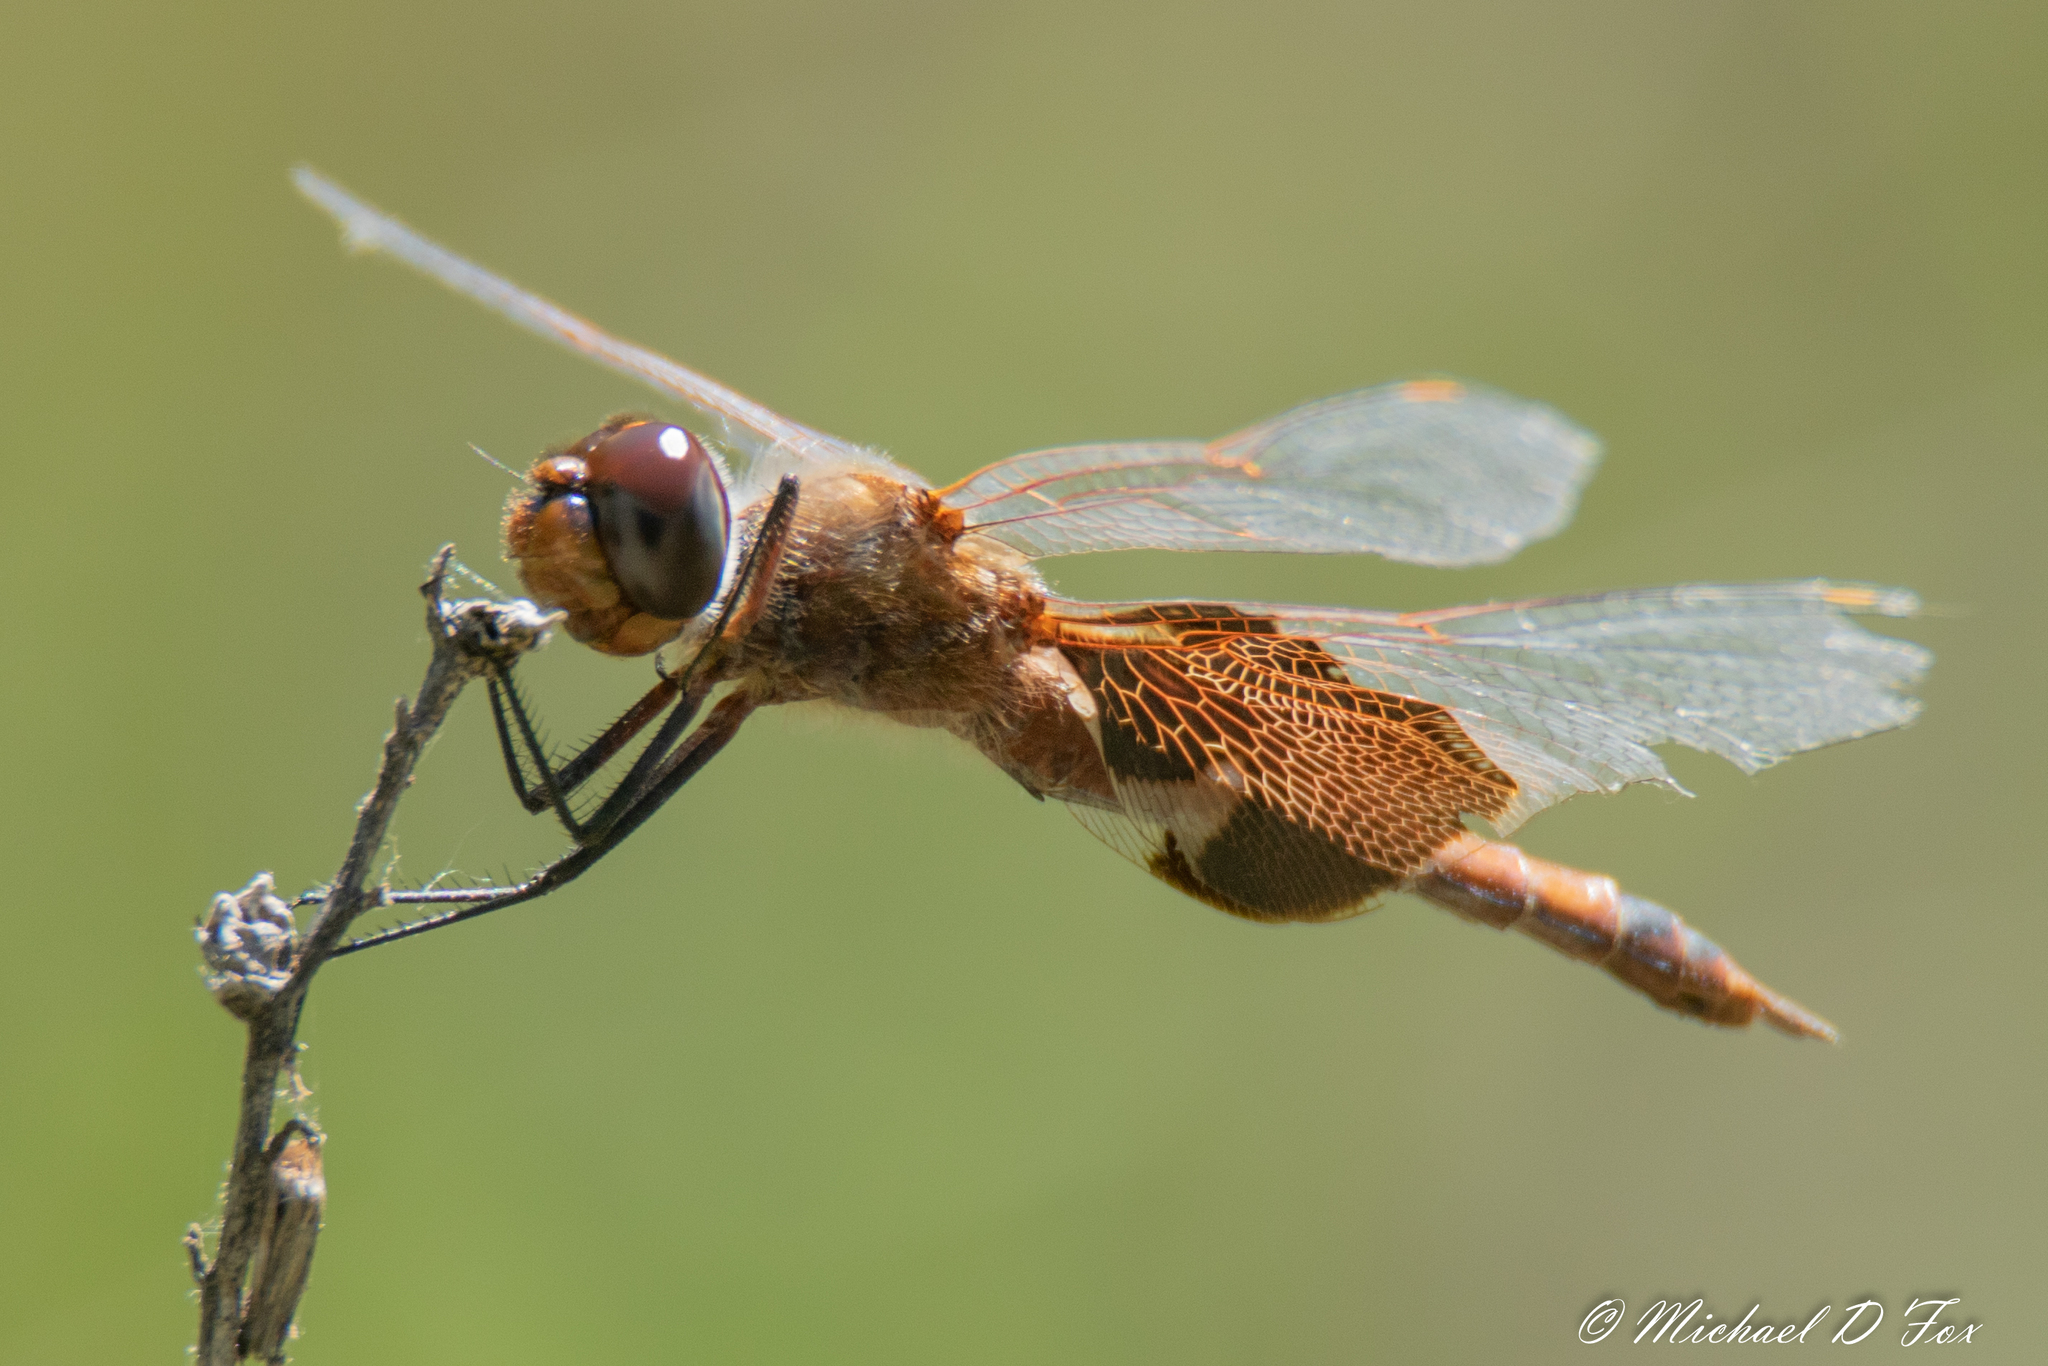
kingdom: Animalia
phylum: Arthropoda
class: Insecta
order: Odonata
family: Libellulidae
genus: Tramea
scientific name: Tramea carolina
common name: Carolina saddlebags
